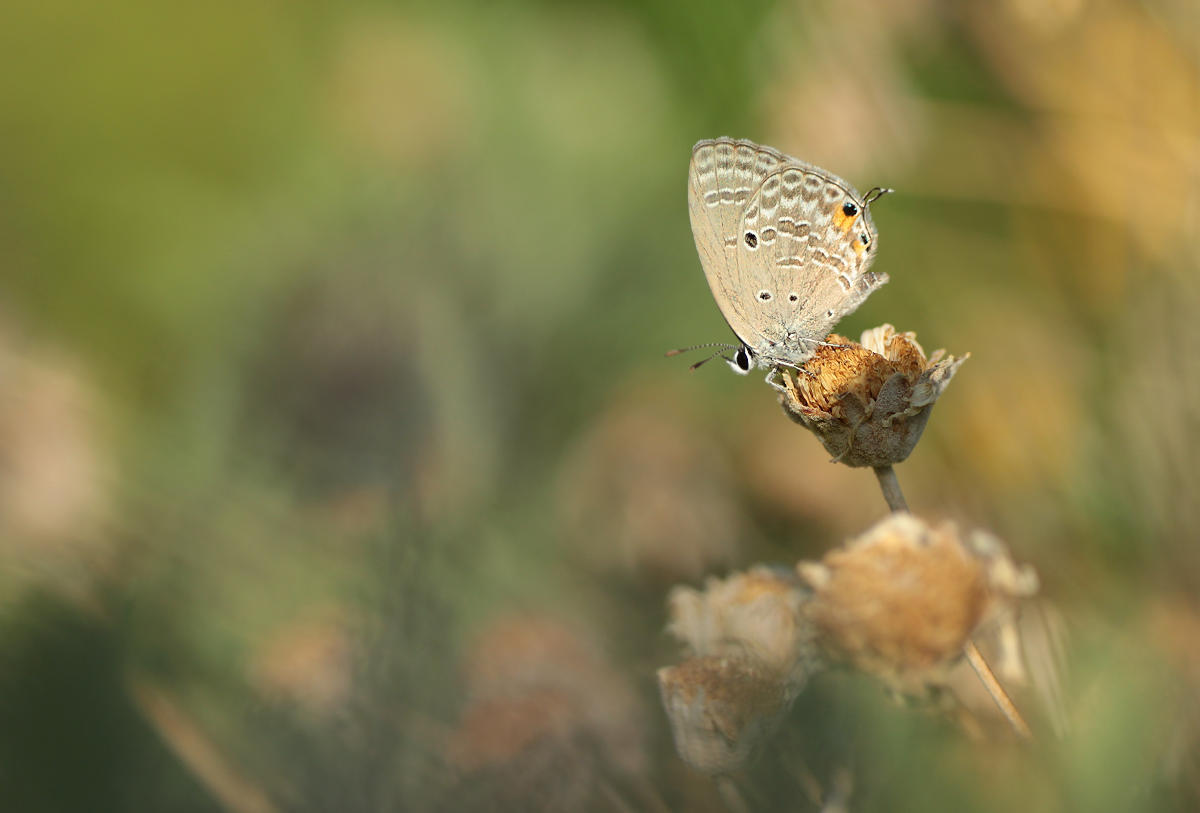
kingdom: Animalia
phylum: Arthropoda
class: Insecta
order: Lepidoptera
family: Lycaenidae
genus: Luthrodes
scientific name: Luthrodes pandava
